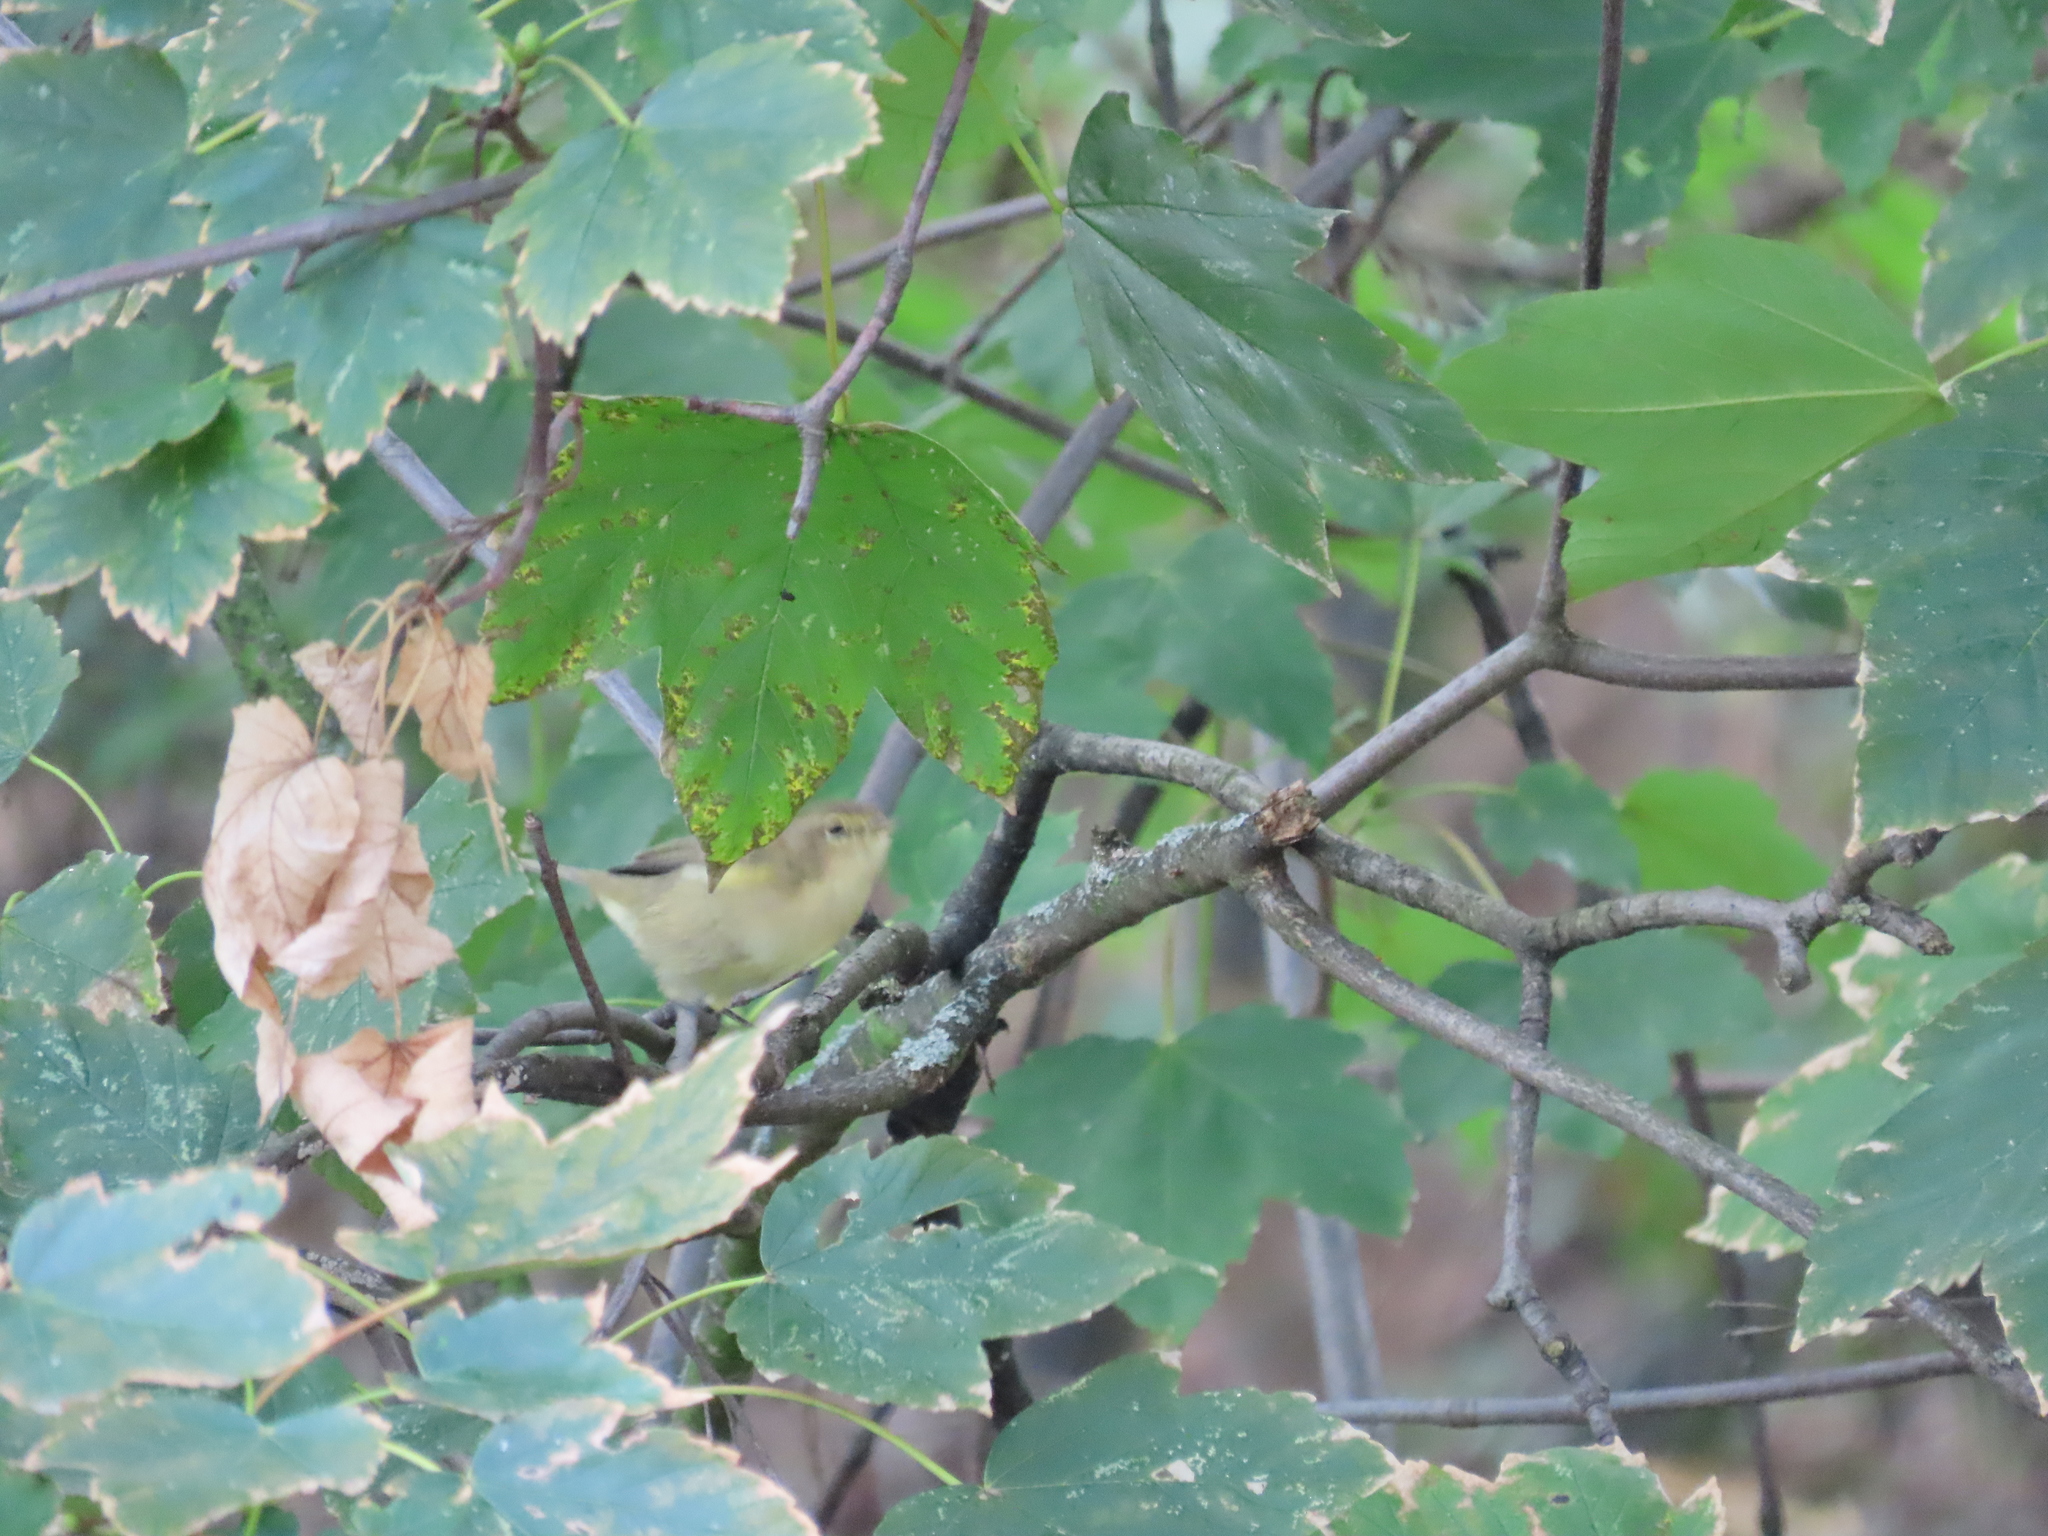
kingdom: Animalia
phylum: Chordata
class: Aves
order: Passeriformes
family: Phylloscopidae
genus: Phylloscopus
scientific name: Phylloscopus collybita
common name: Common chiffchaff
